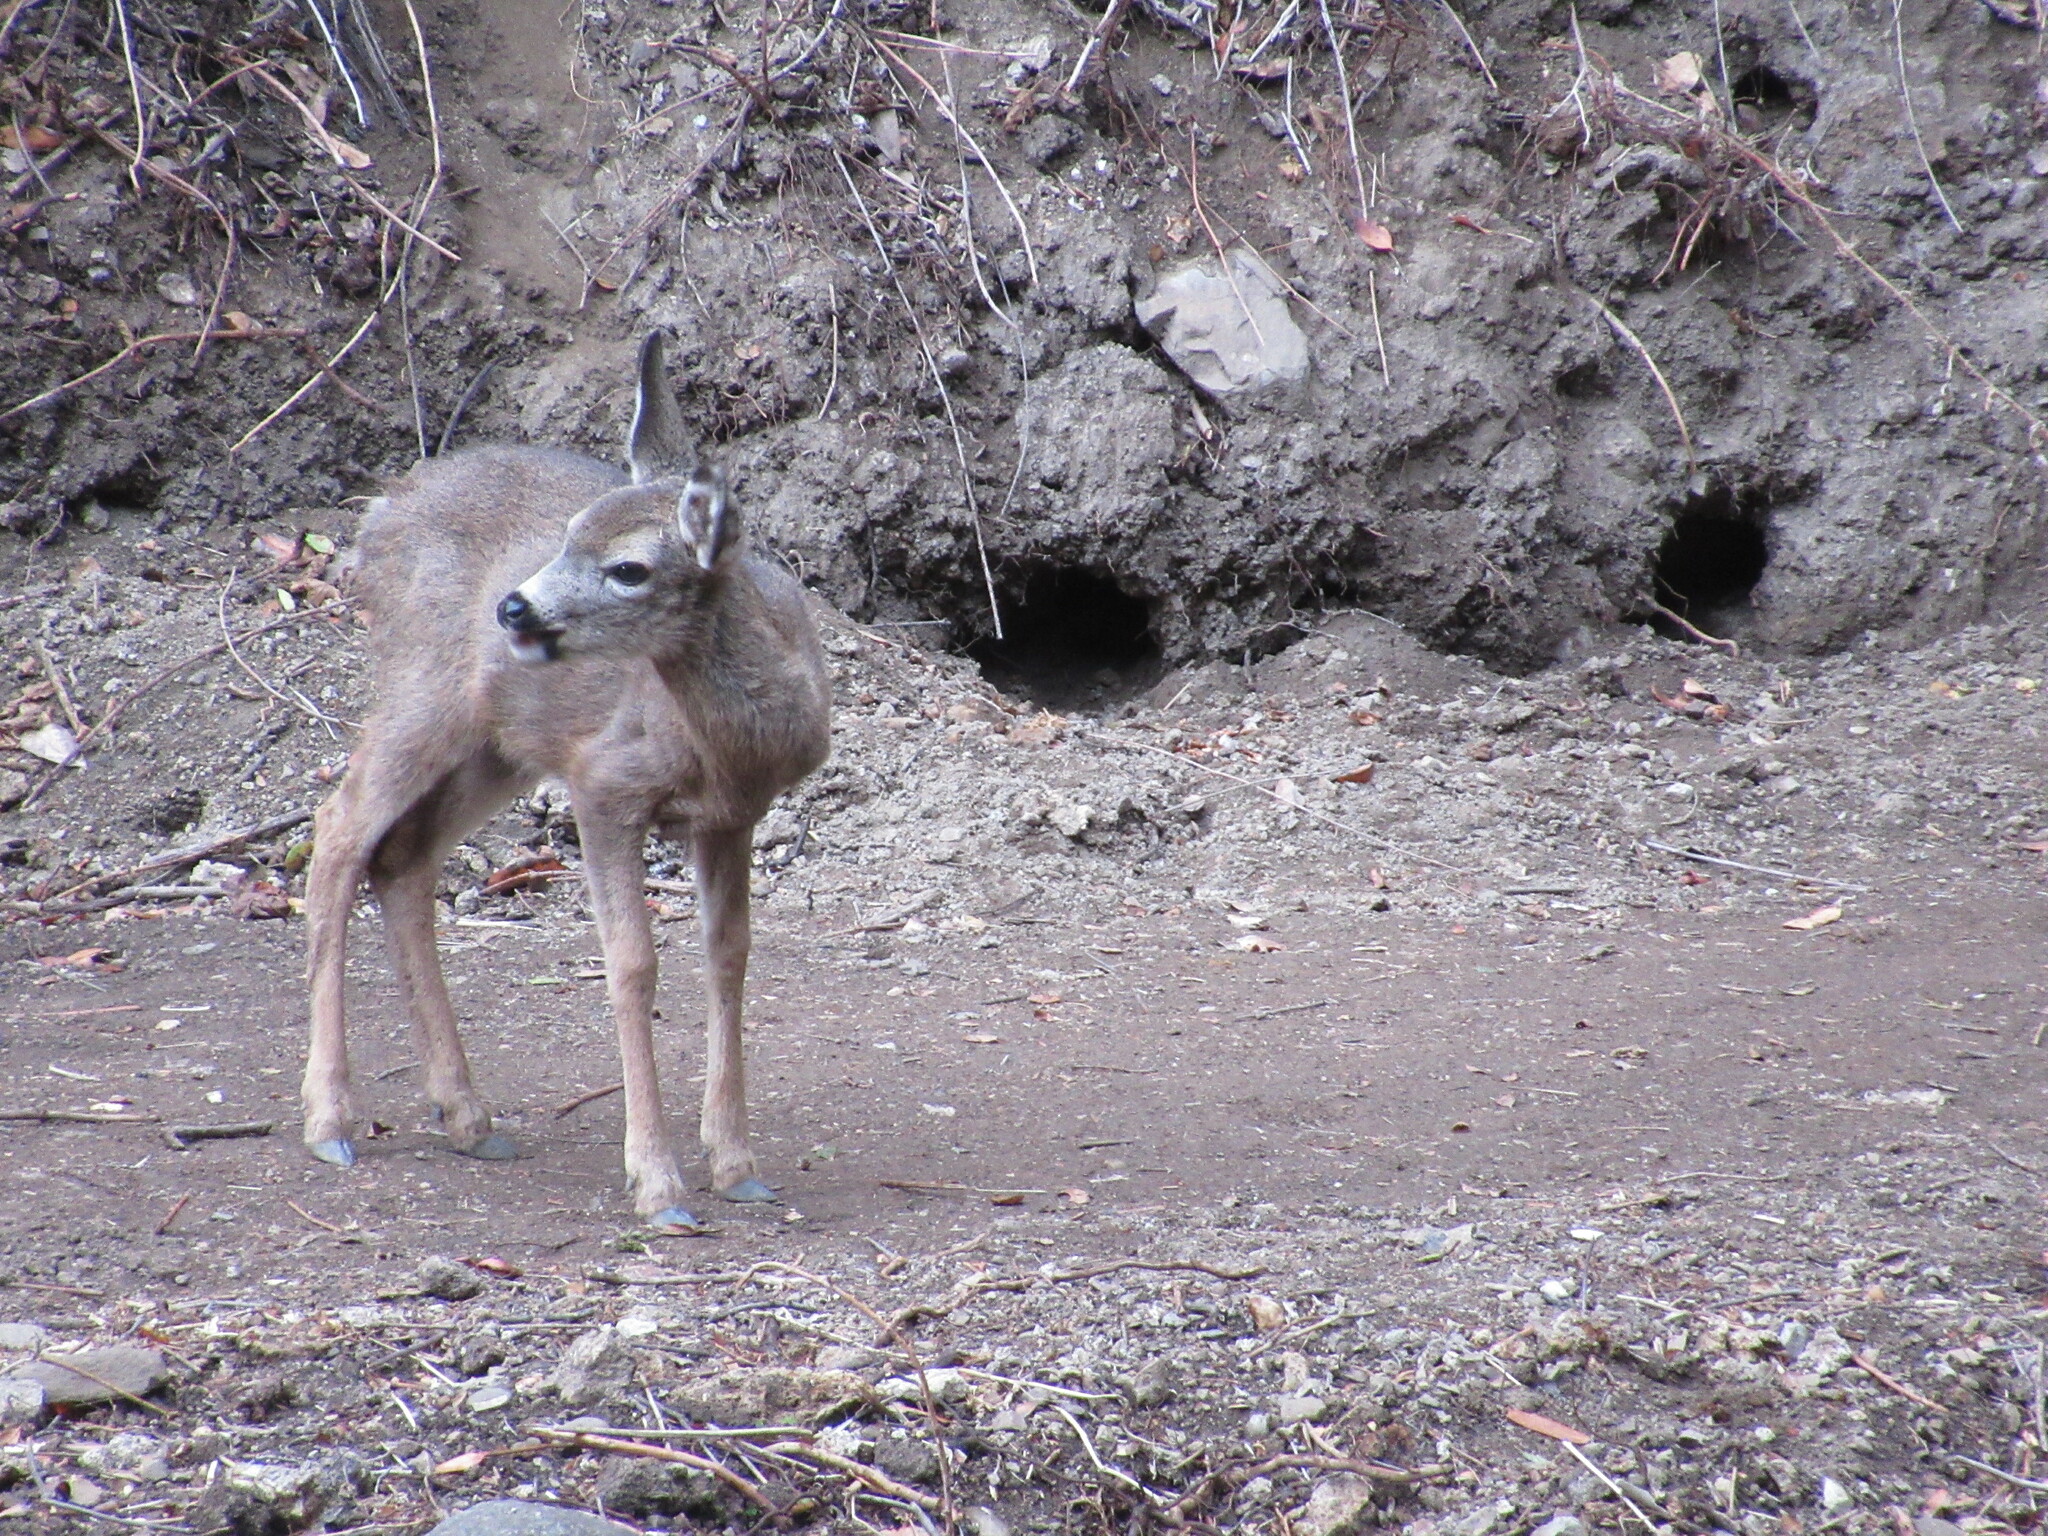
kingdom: Animalia
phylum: Chordata
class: Mammalia
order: Artiodactyla
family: Cervidae
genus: Odocoileus
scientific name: Odocoileus hemionus
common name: Mule deer
